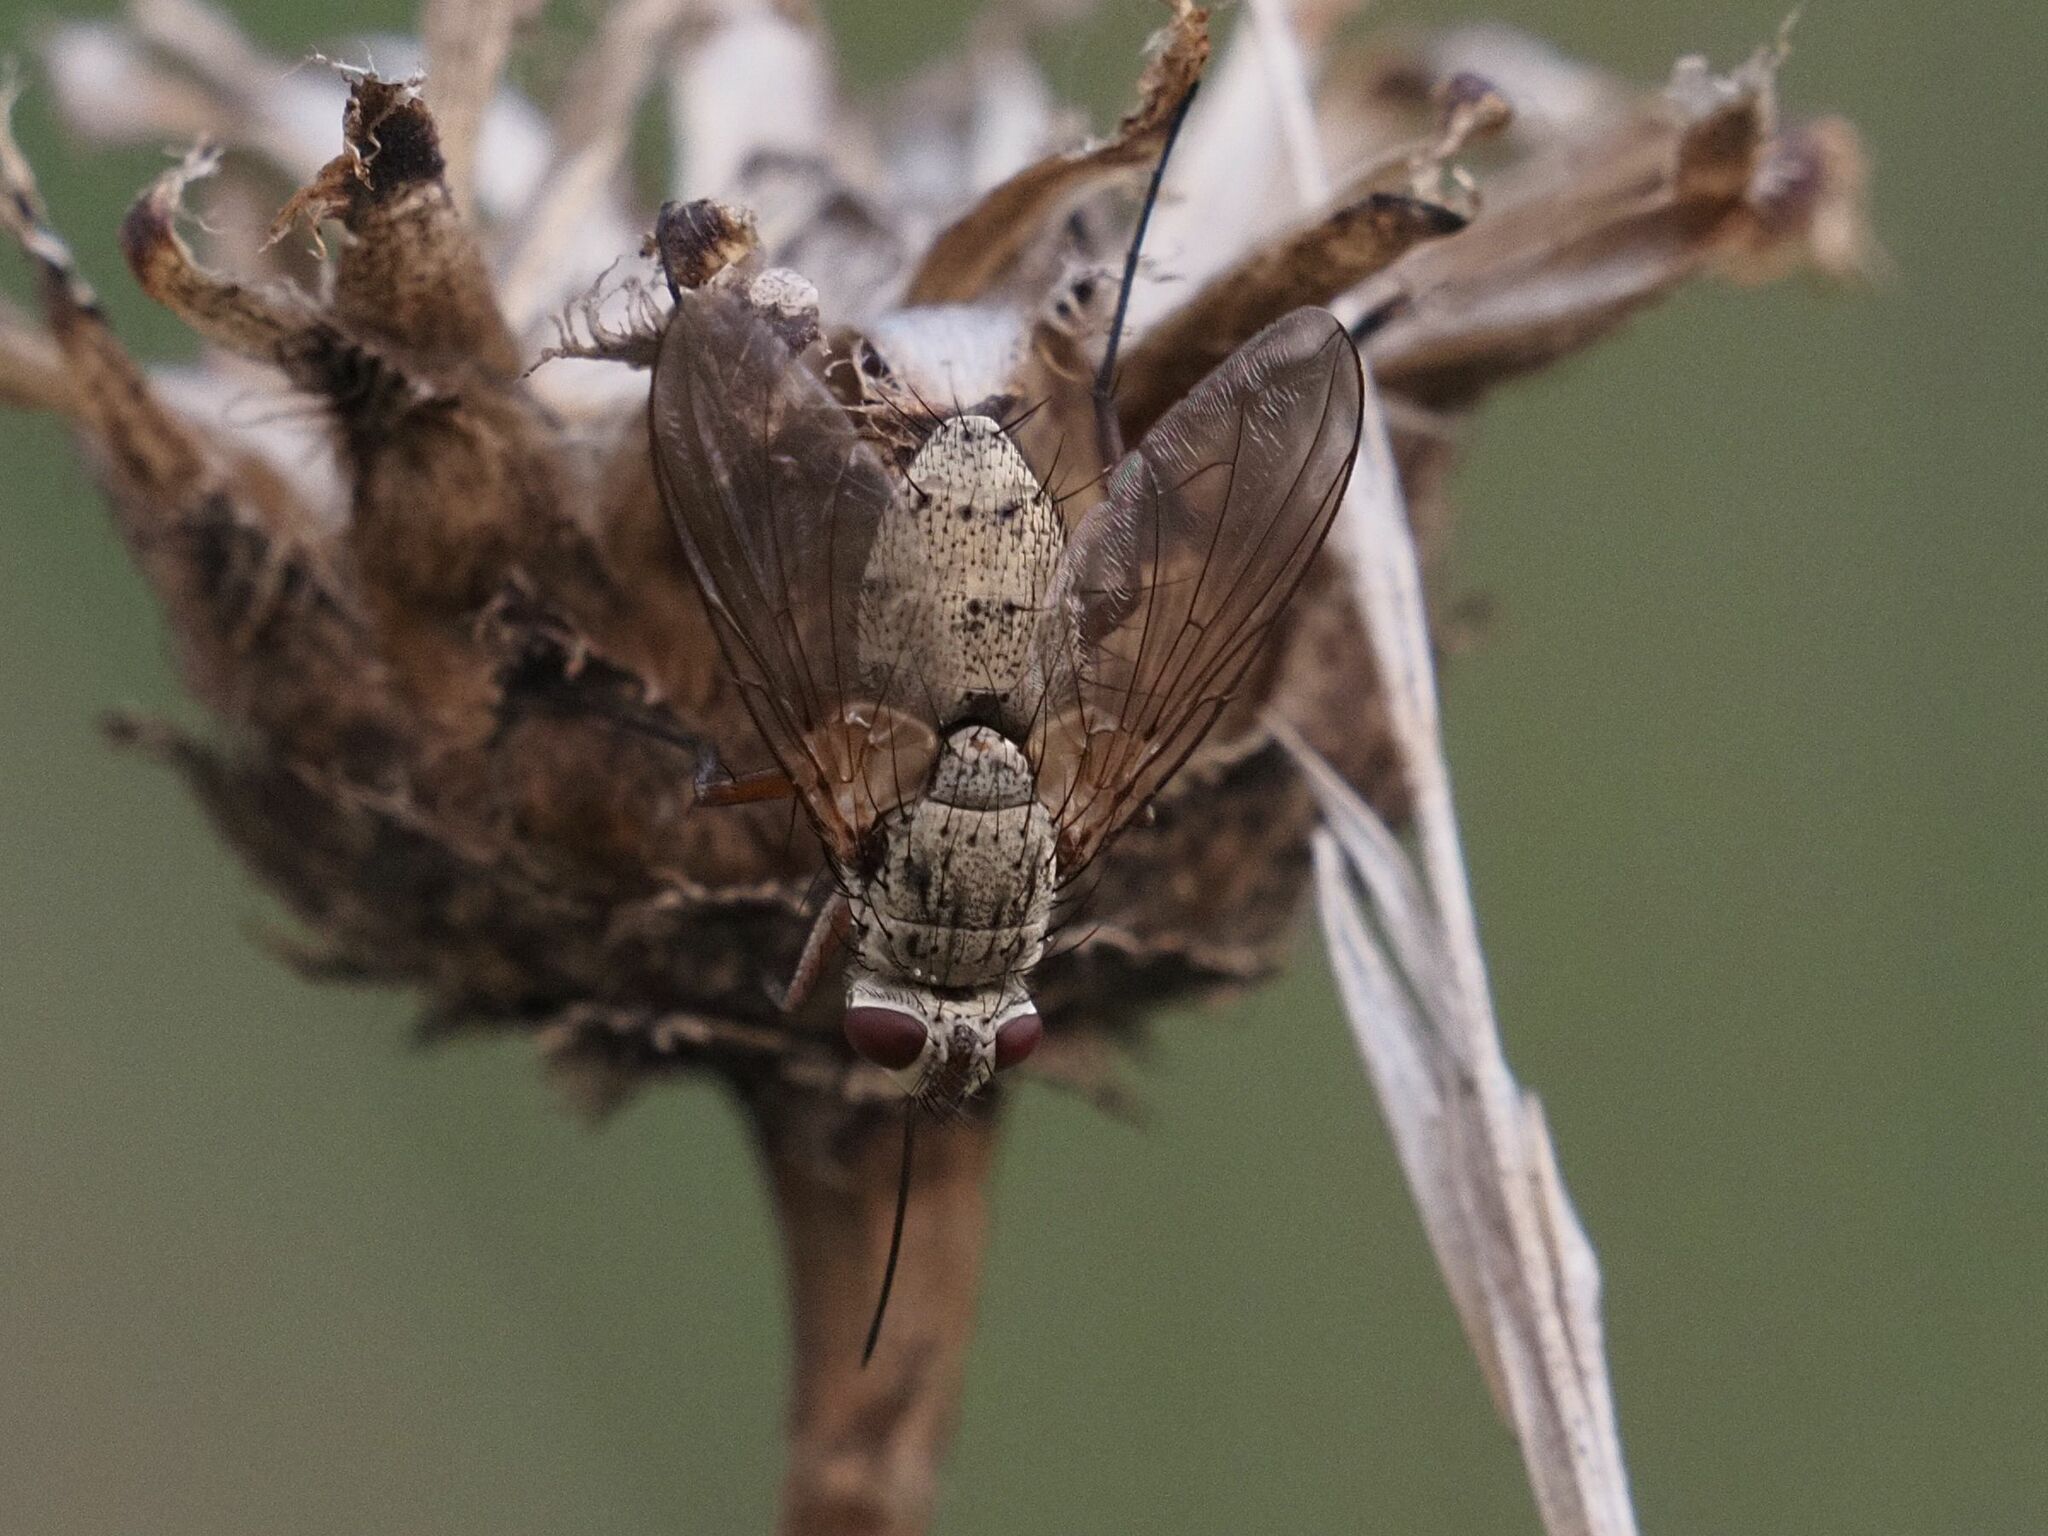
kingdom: Animalia
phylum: Arthropoda
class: Insecta
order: Diptera
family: Tachinidae
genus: Prosena
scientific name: Prosena siberita
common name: Parasitic fly
